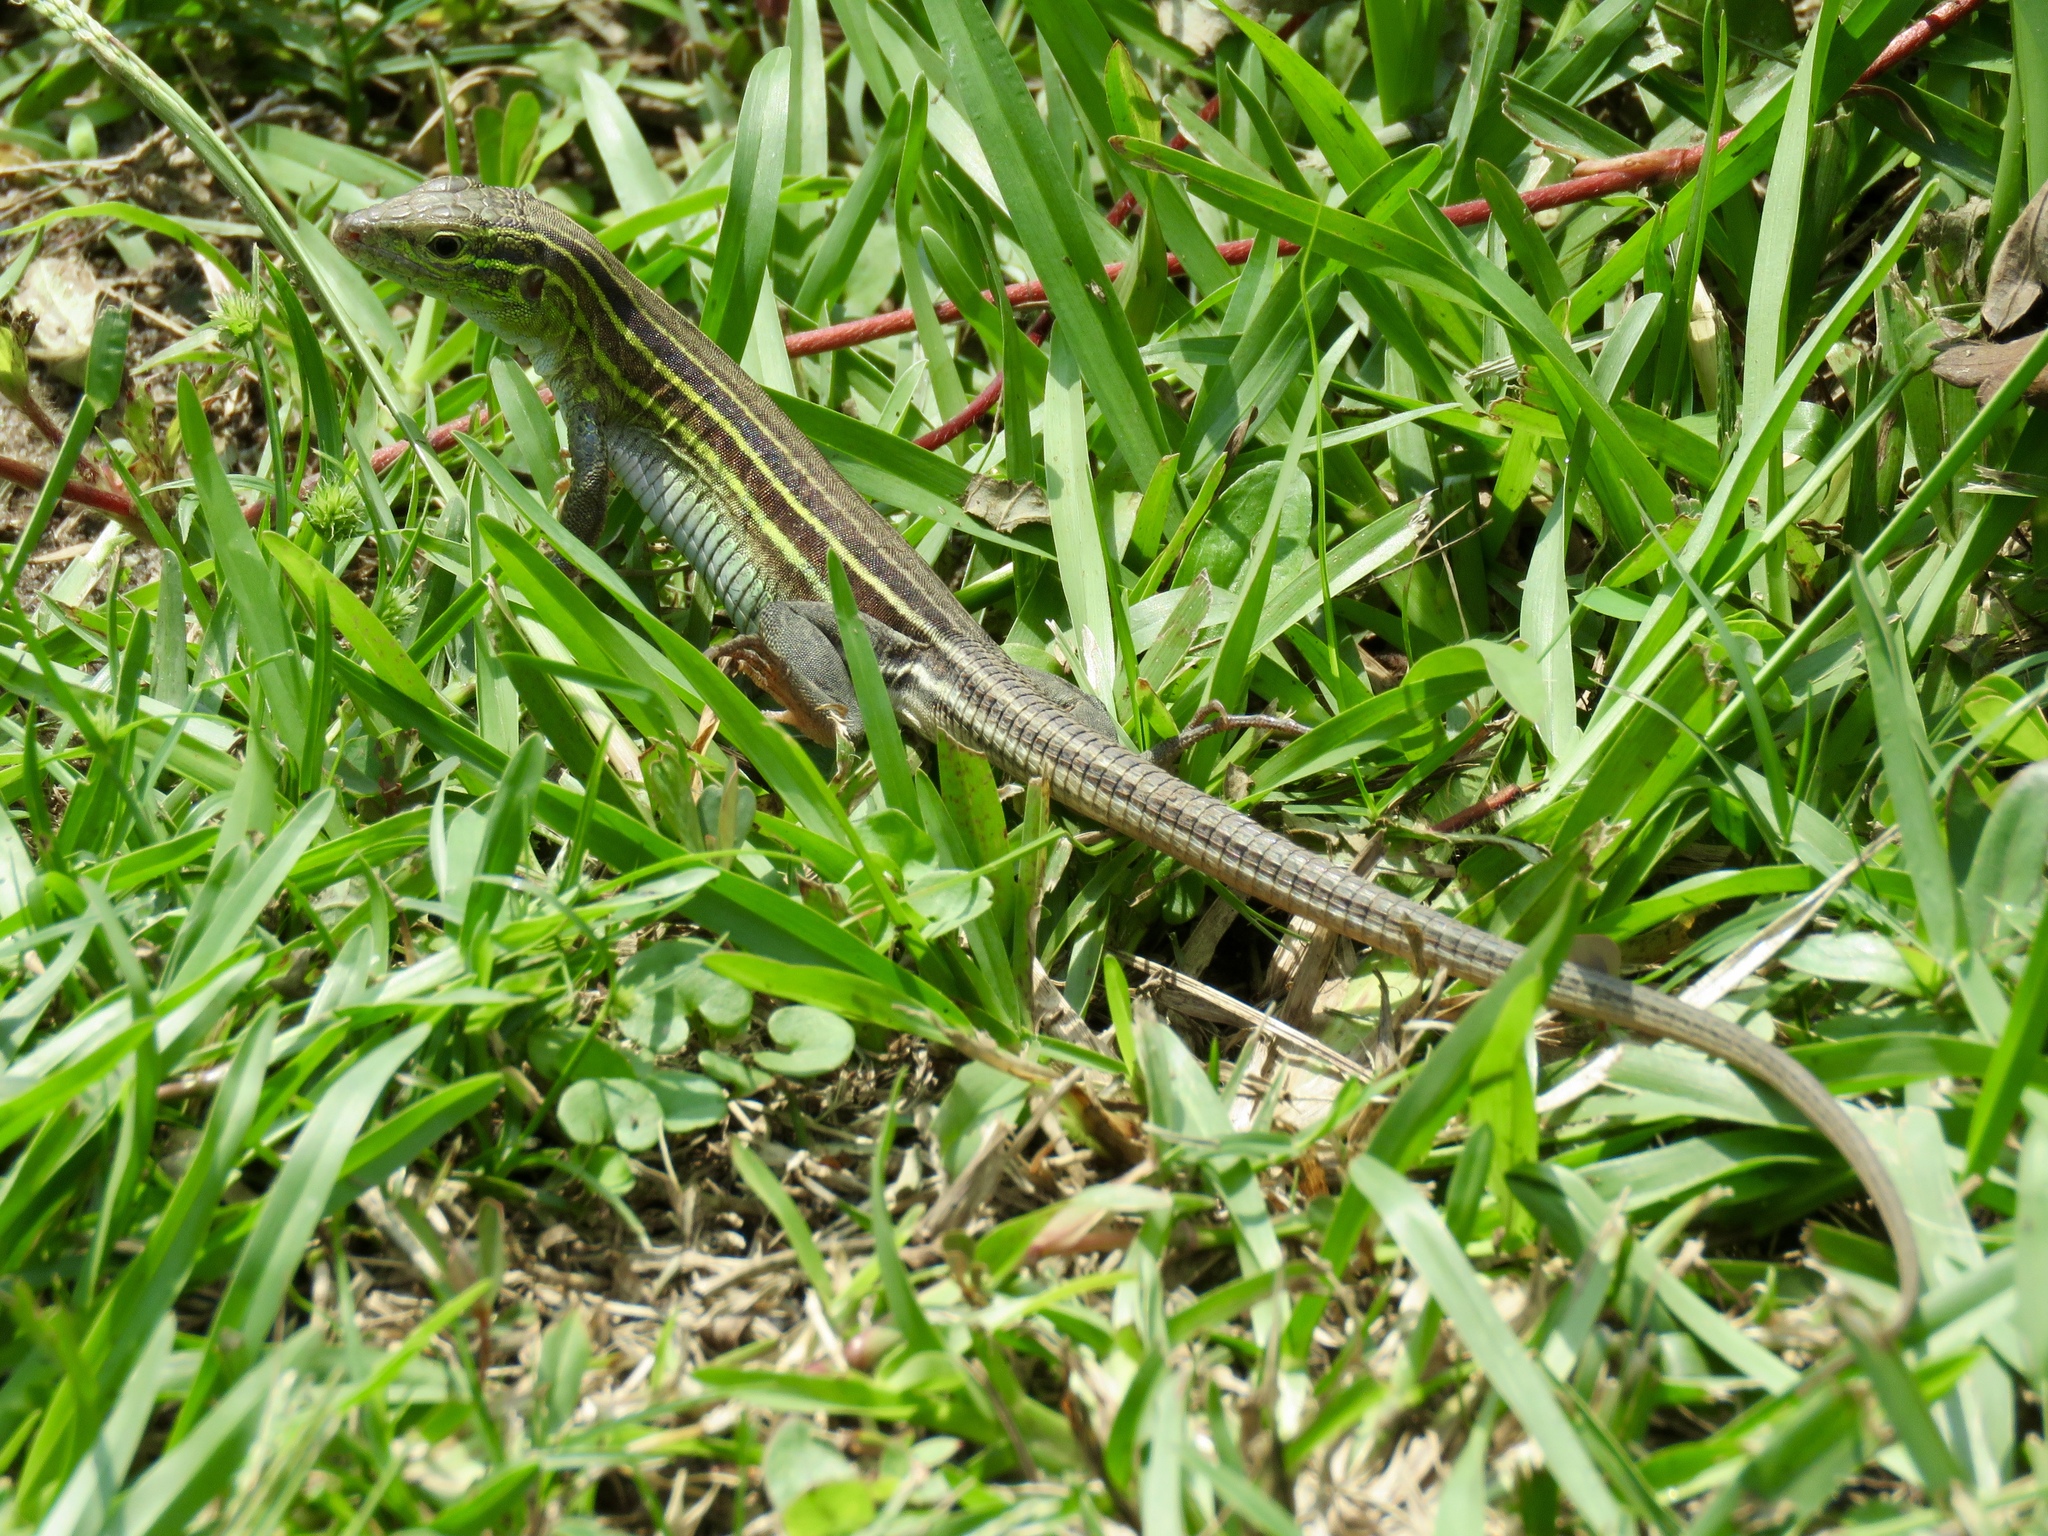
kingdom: Animalia
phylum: Chordata
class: Squamata
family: Teiidae
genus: Aspidoscelis
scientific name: Aspidoscelis sexlineatus
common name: Six-lined racerunner
